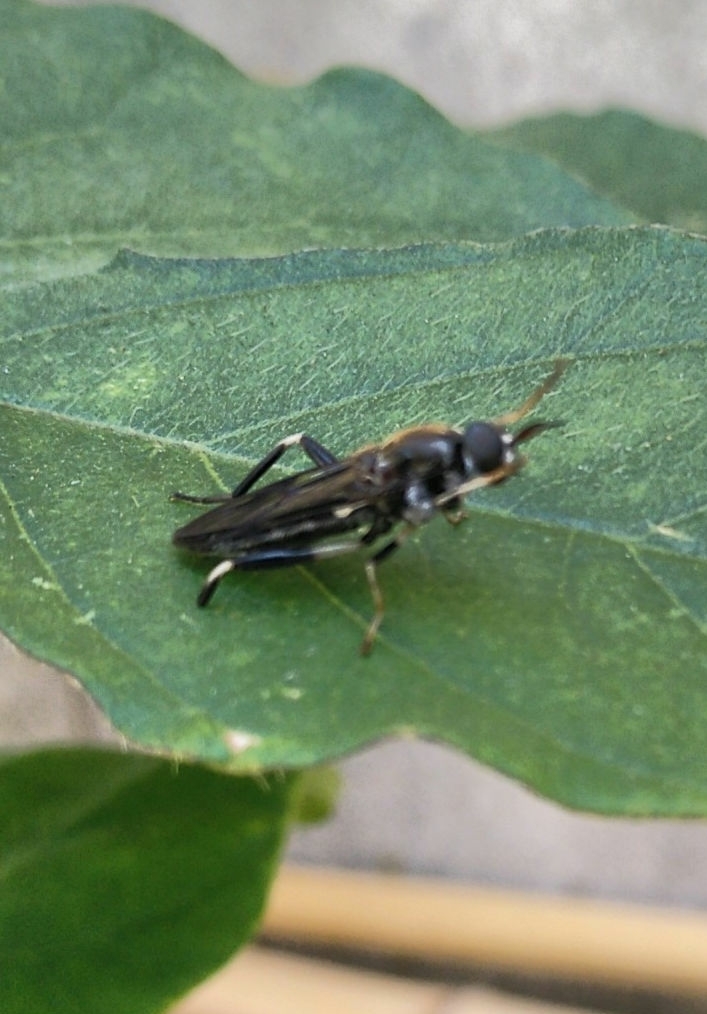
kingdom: Animalia
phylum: Arthropoda
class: Insecta
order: Diptera
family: Stratiomyidae
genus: Exaireta
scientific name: Exaireta spinigera
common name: Blue soldier fly
